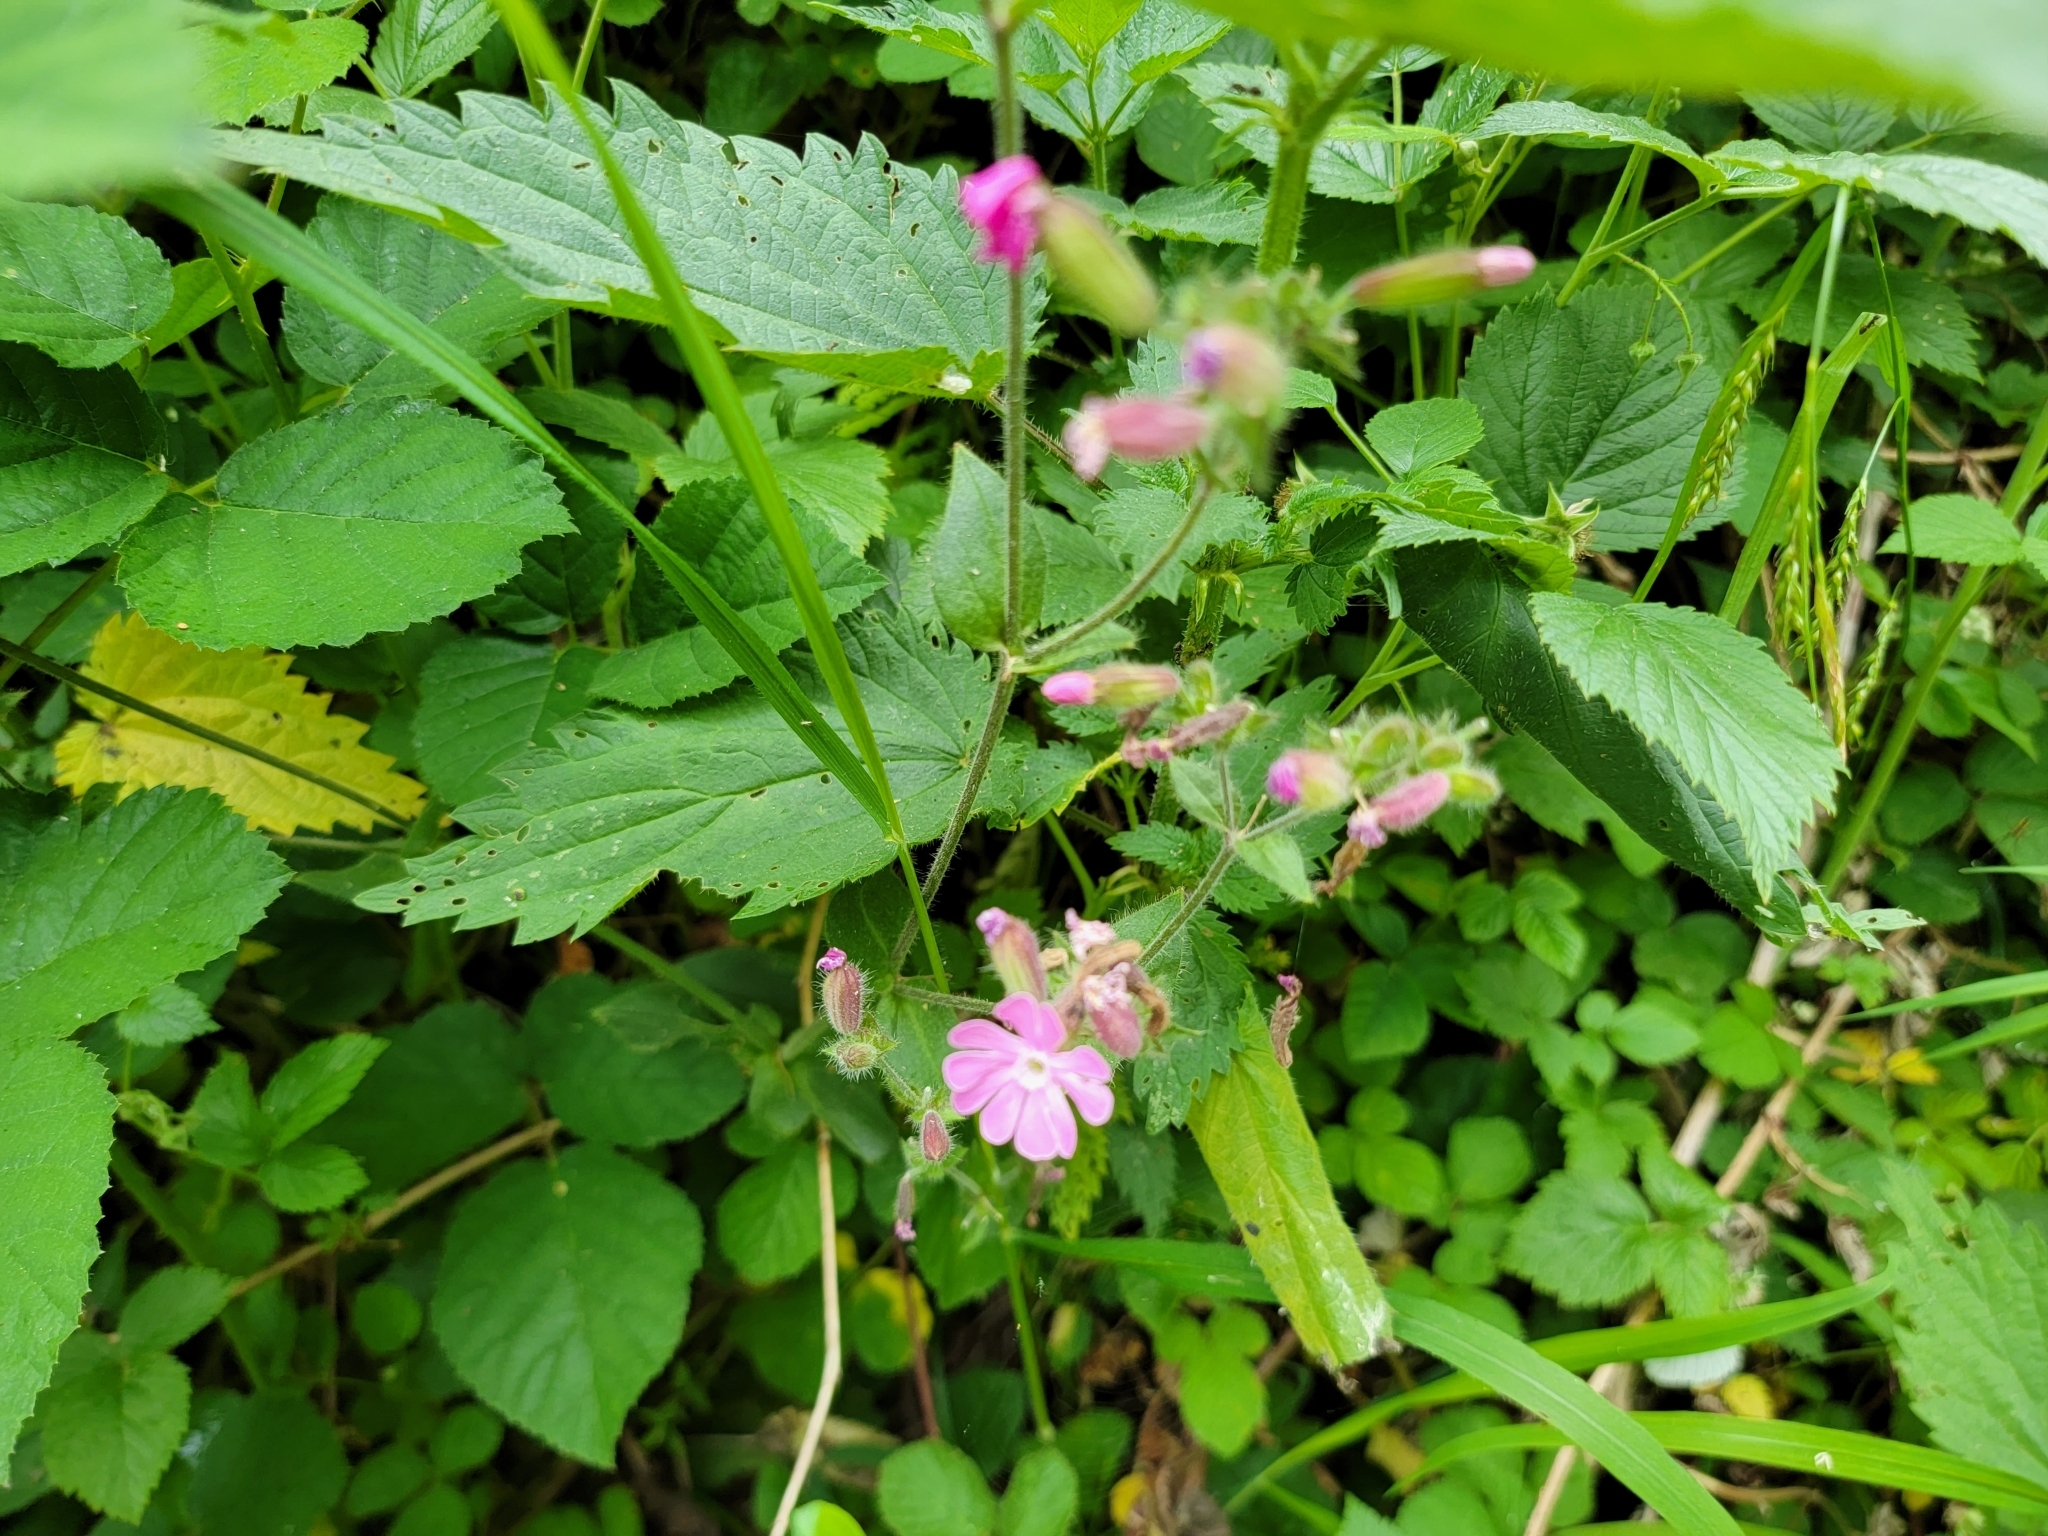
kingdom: Plantae
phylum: Tracheophyta
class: Magnoliopsida
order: Caryophyllales
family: Caryophyllaceae
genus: Silene
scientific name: Silene dioica
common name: Red campion
